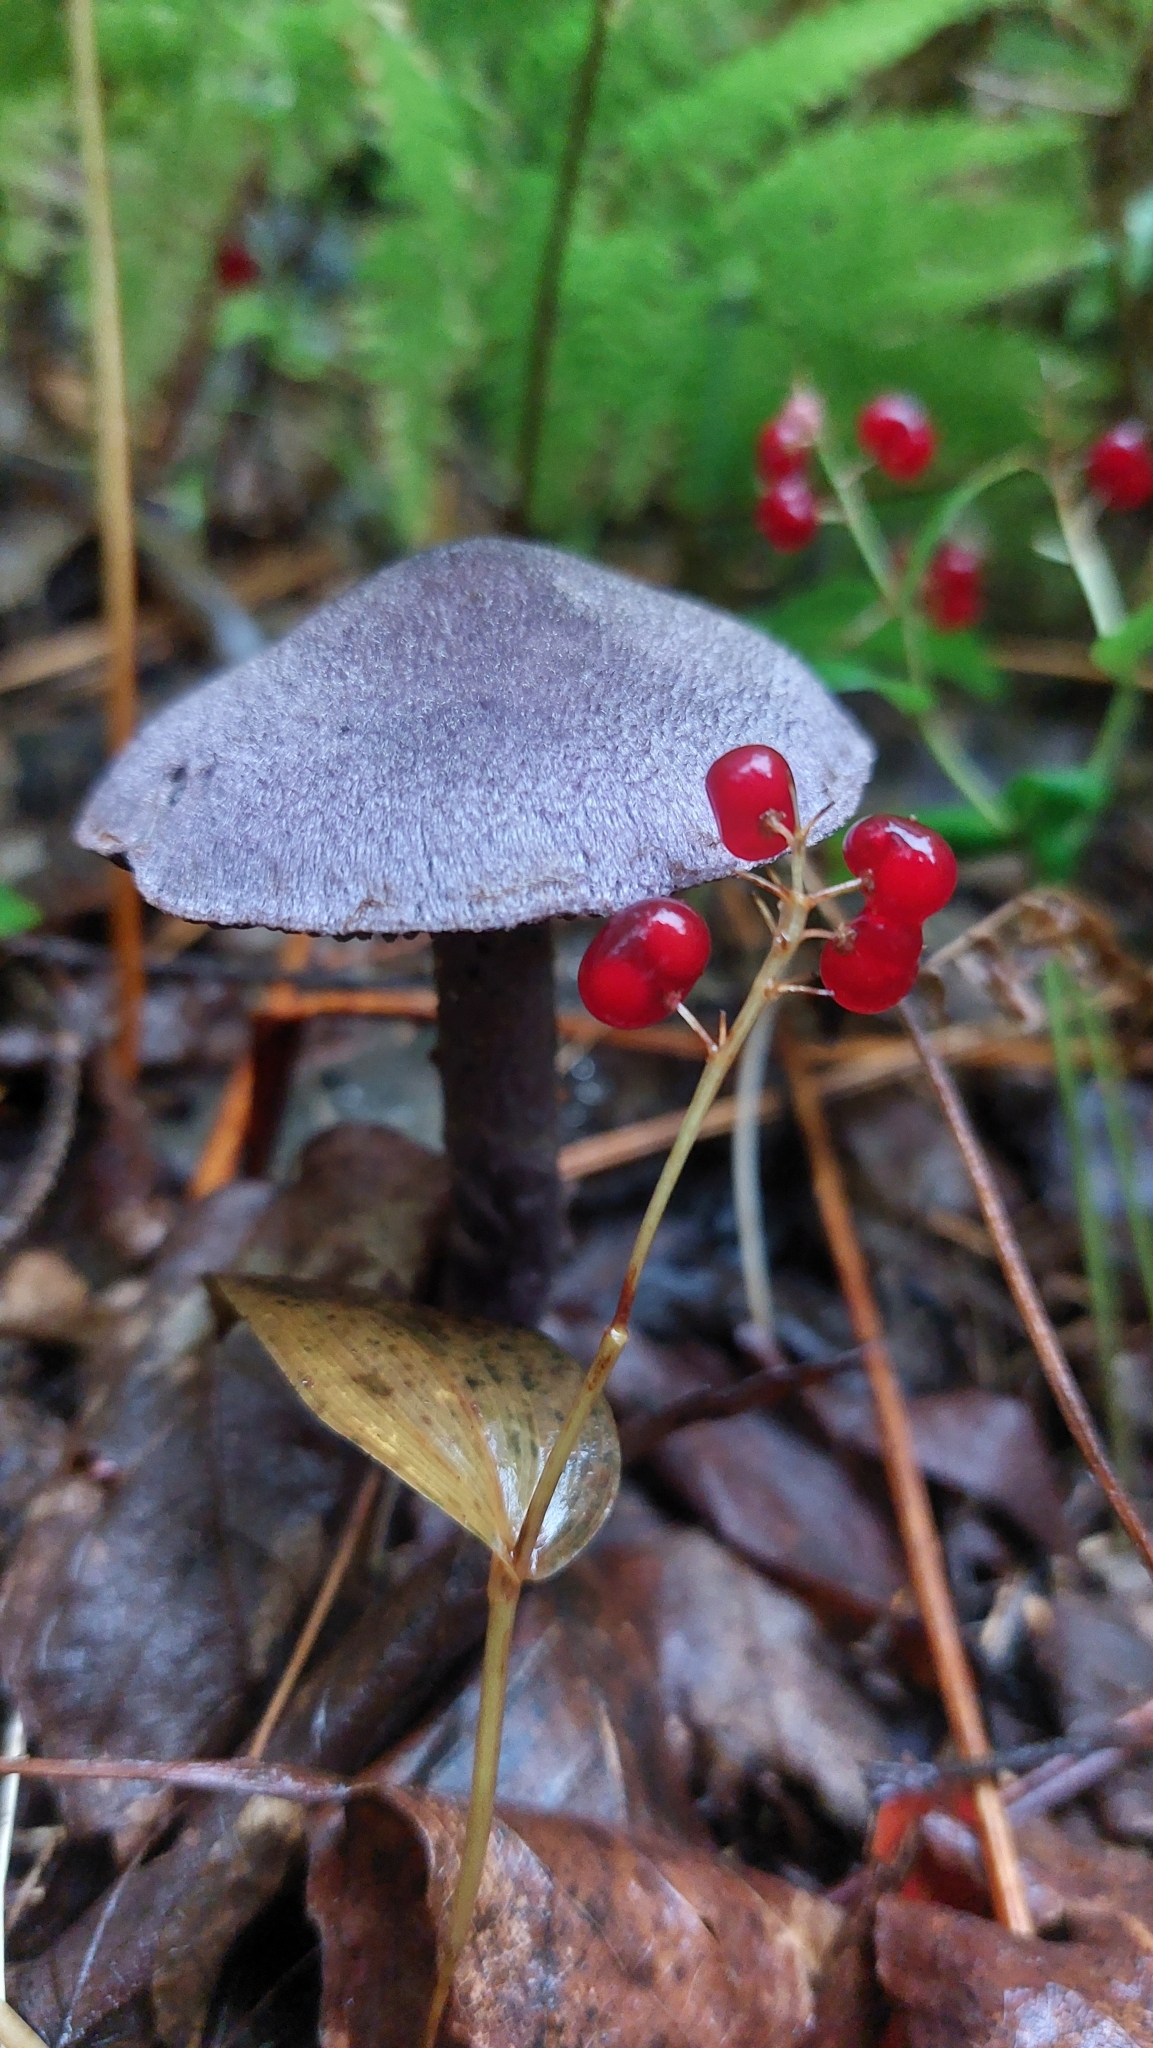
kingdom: Fungi
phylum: Basidiomycota
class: Agaricomycetes
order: Agaricales
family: Cortinariaceae
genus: Cortinarius
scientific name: Cortinarius violaceus
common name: Violet webcap
